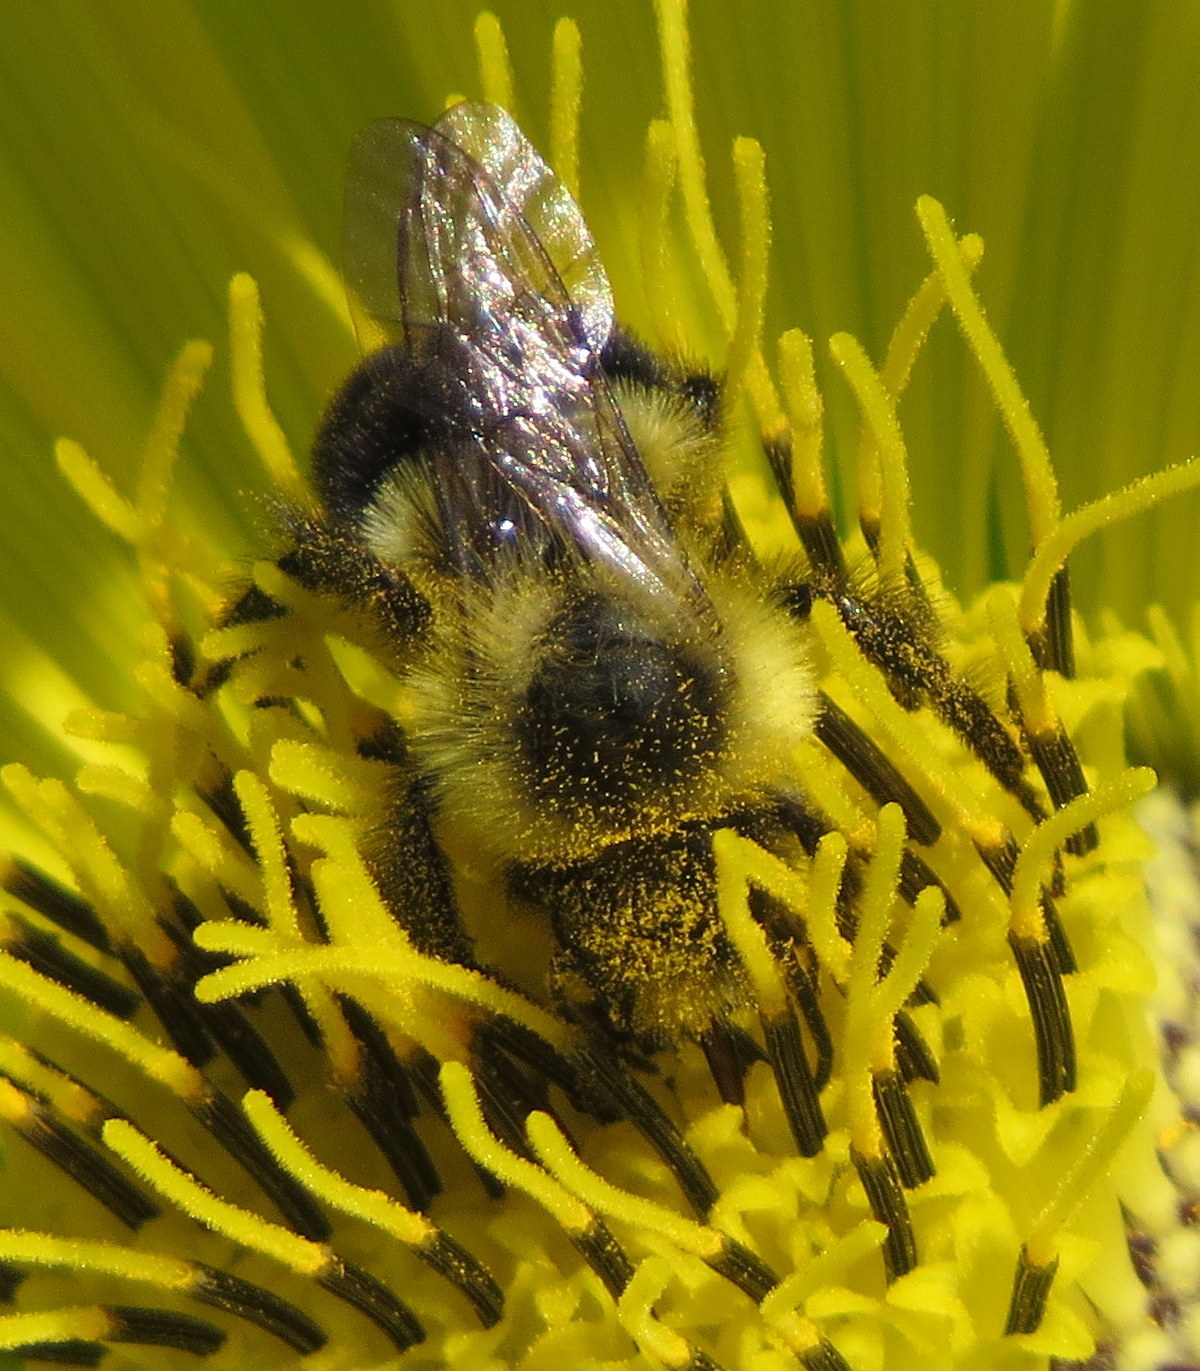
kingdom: Animalia
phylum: Arthropoda
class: Insecta
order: Hymenoptera
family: Apidae
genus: Bombus
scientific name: Bombus impatiens
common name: Common eastern bumble bee
